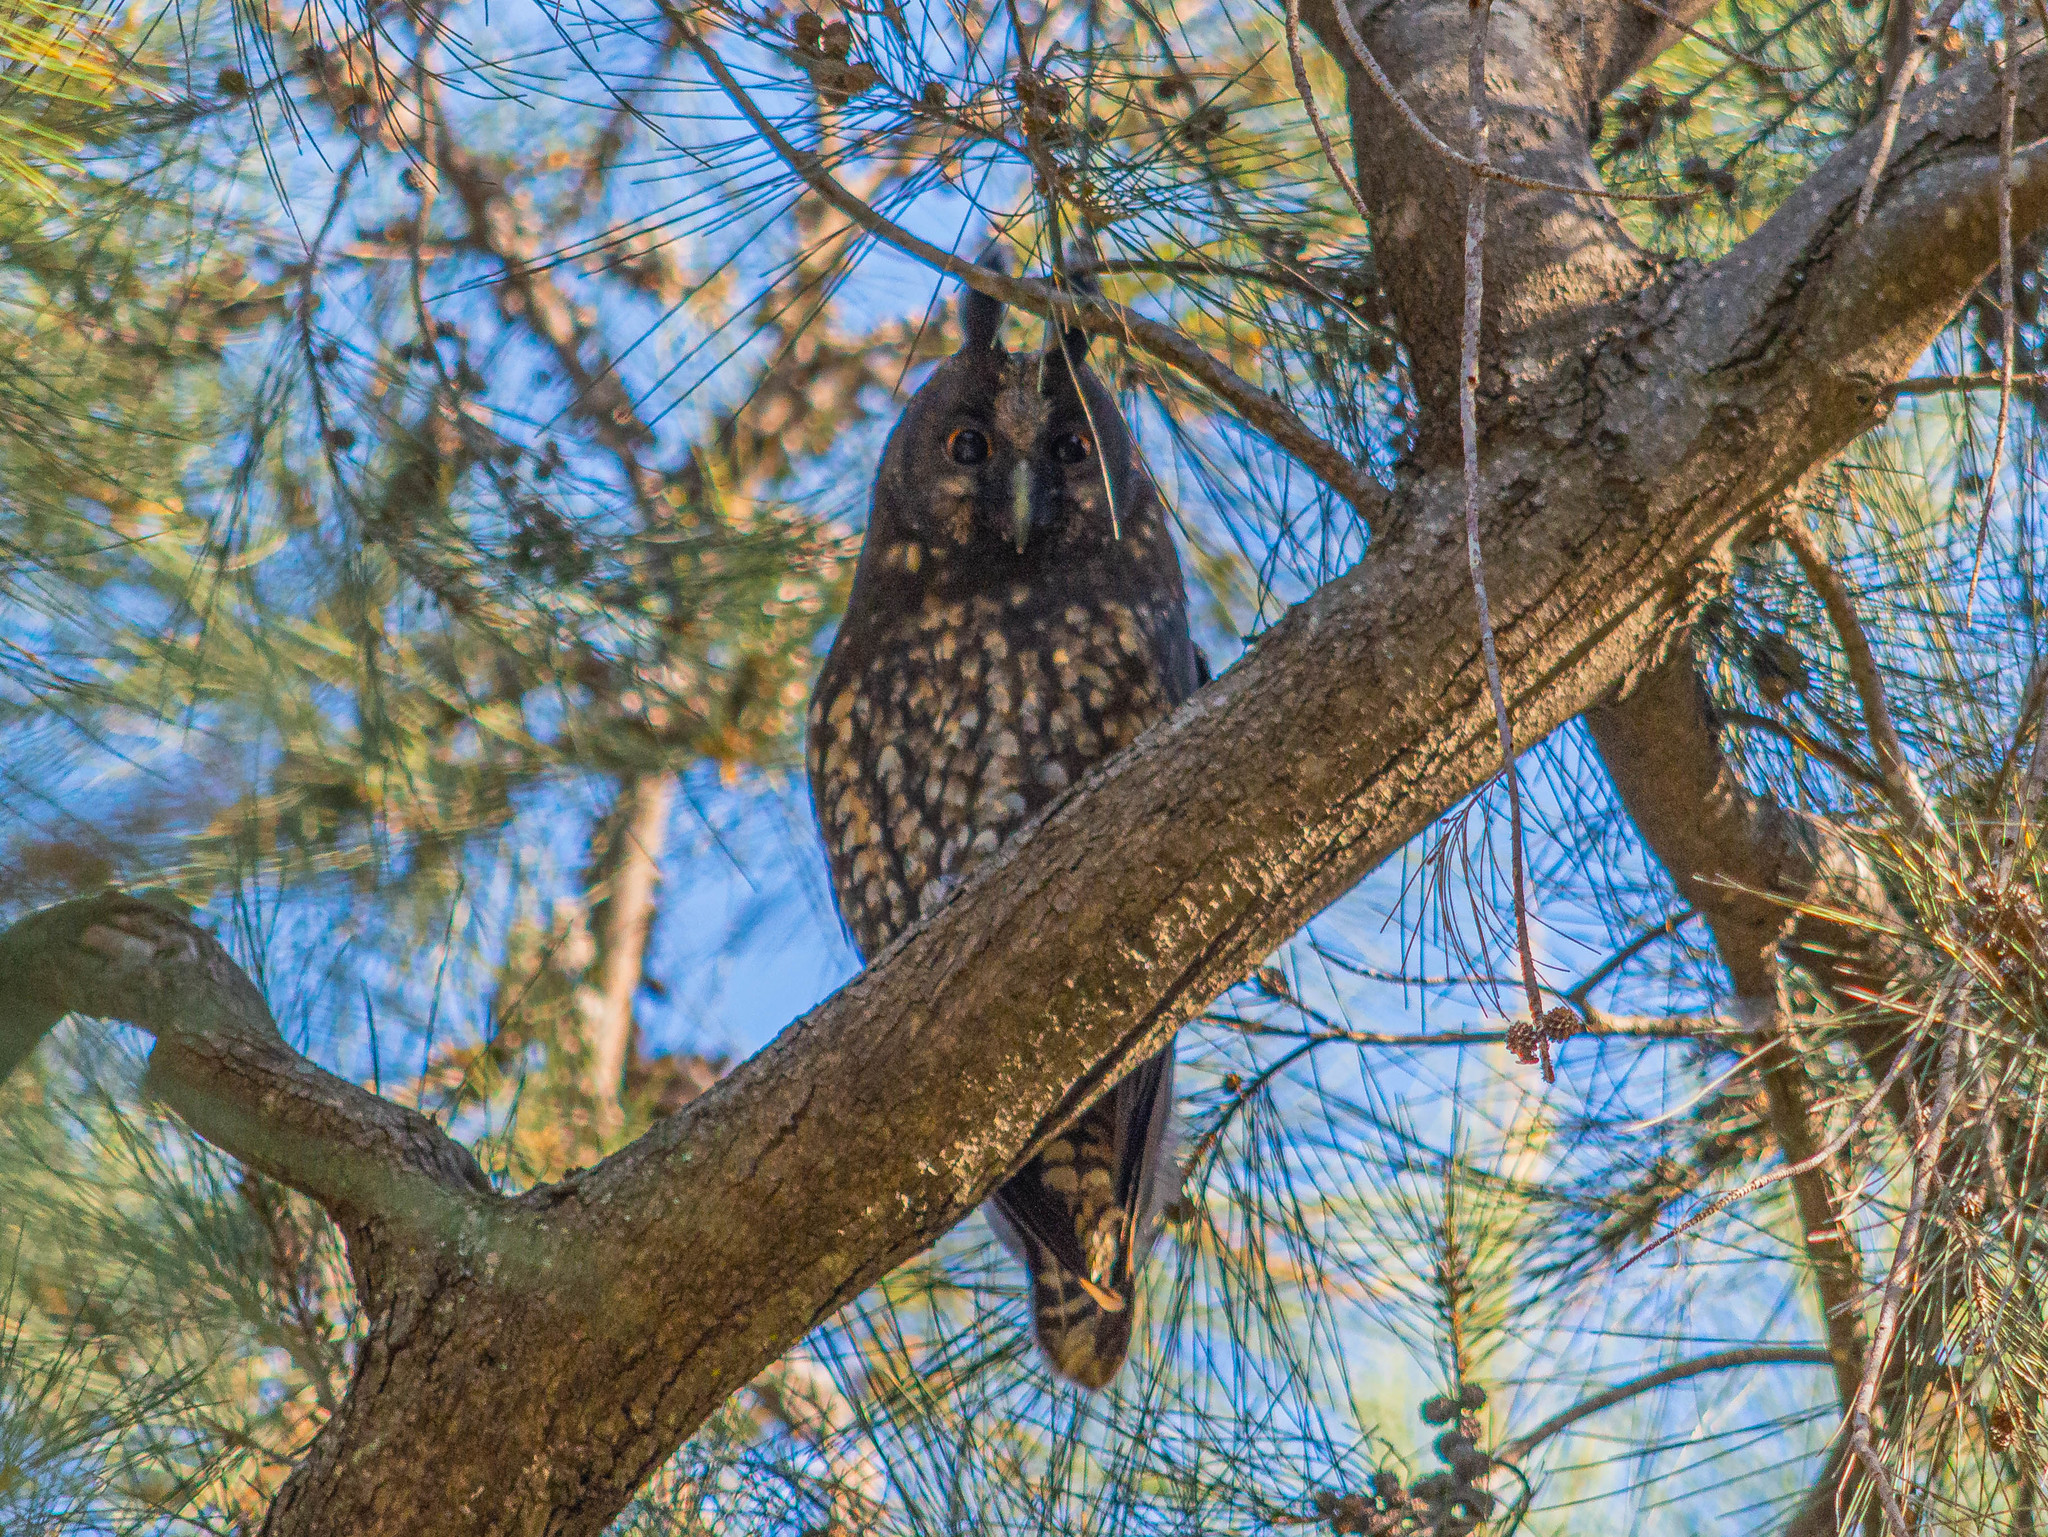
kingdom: Animalia
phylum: Chordata
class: Aves
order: Strigiformes
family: Strigidae
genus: Asio
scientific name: Asio stygius
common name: Stygian owl
